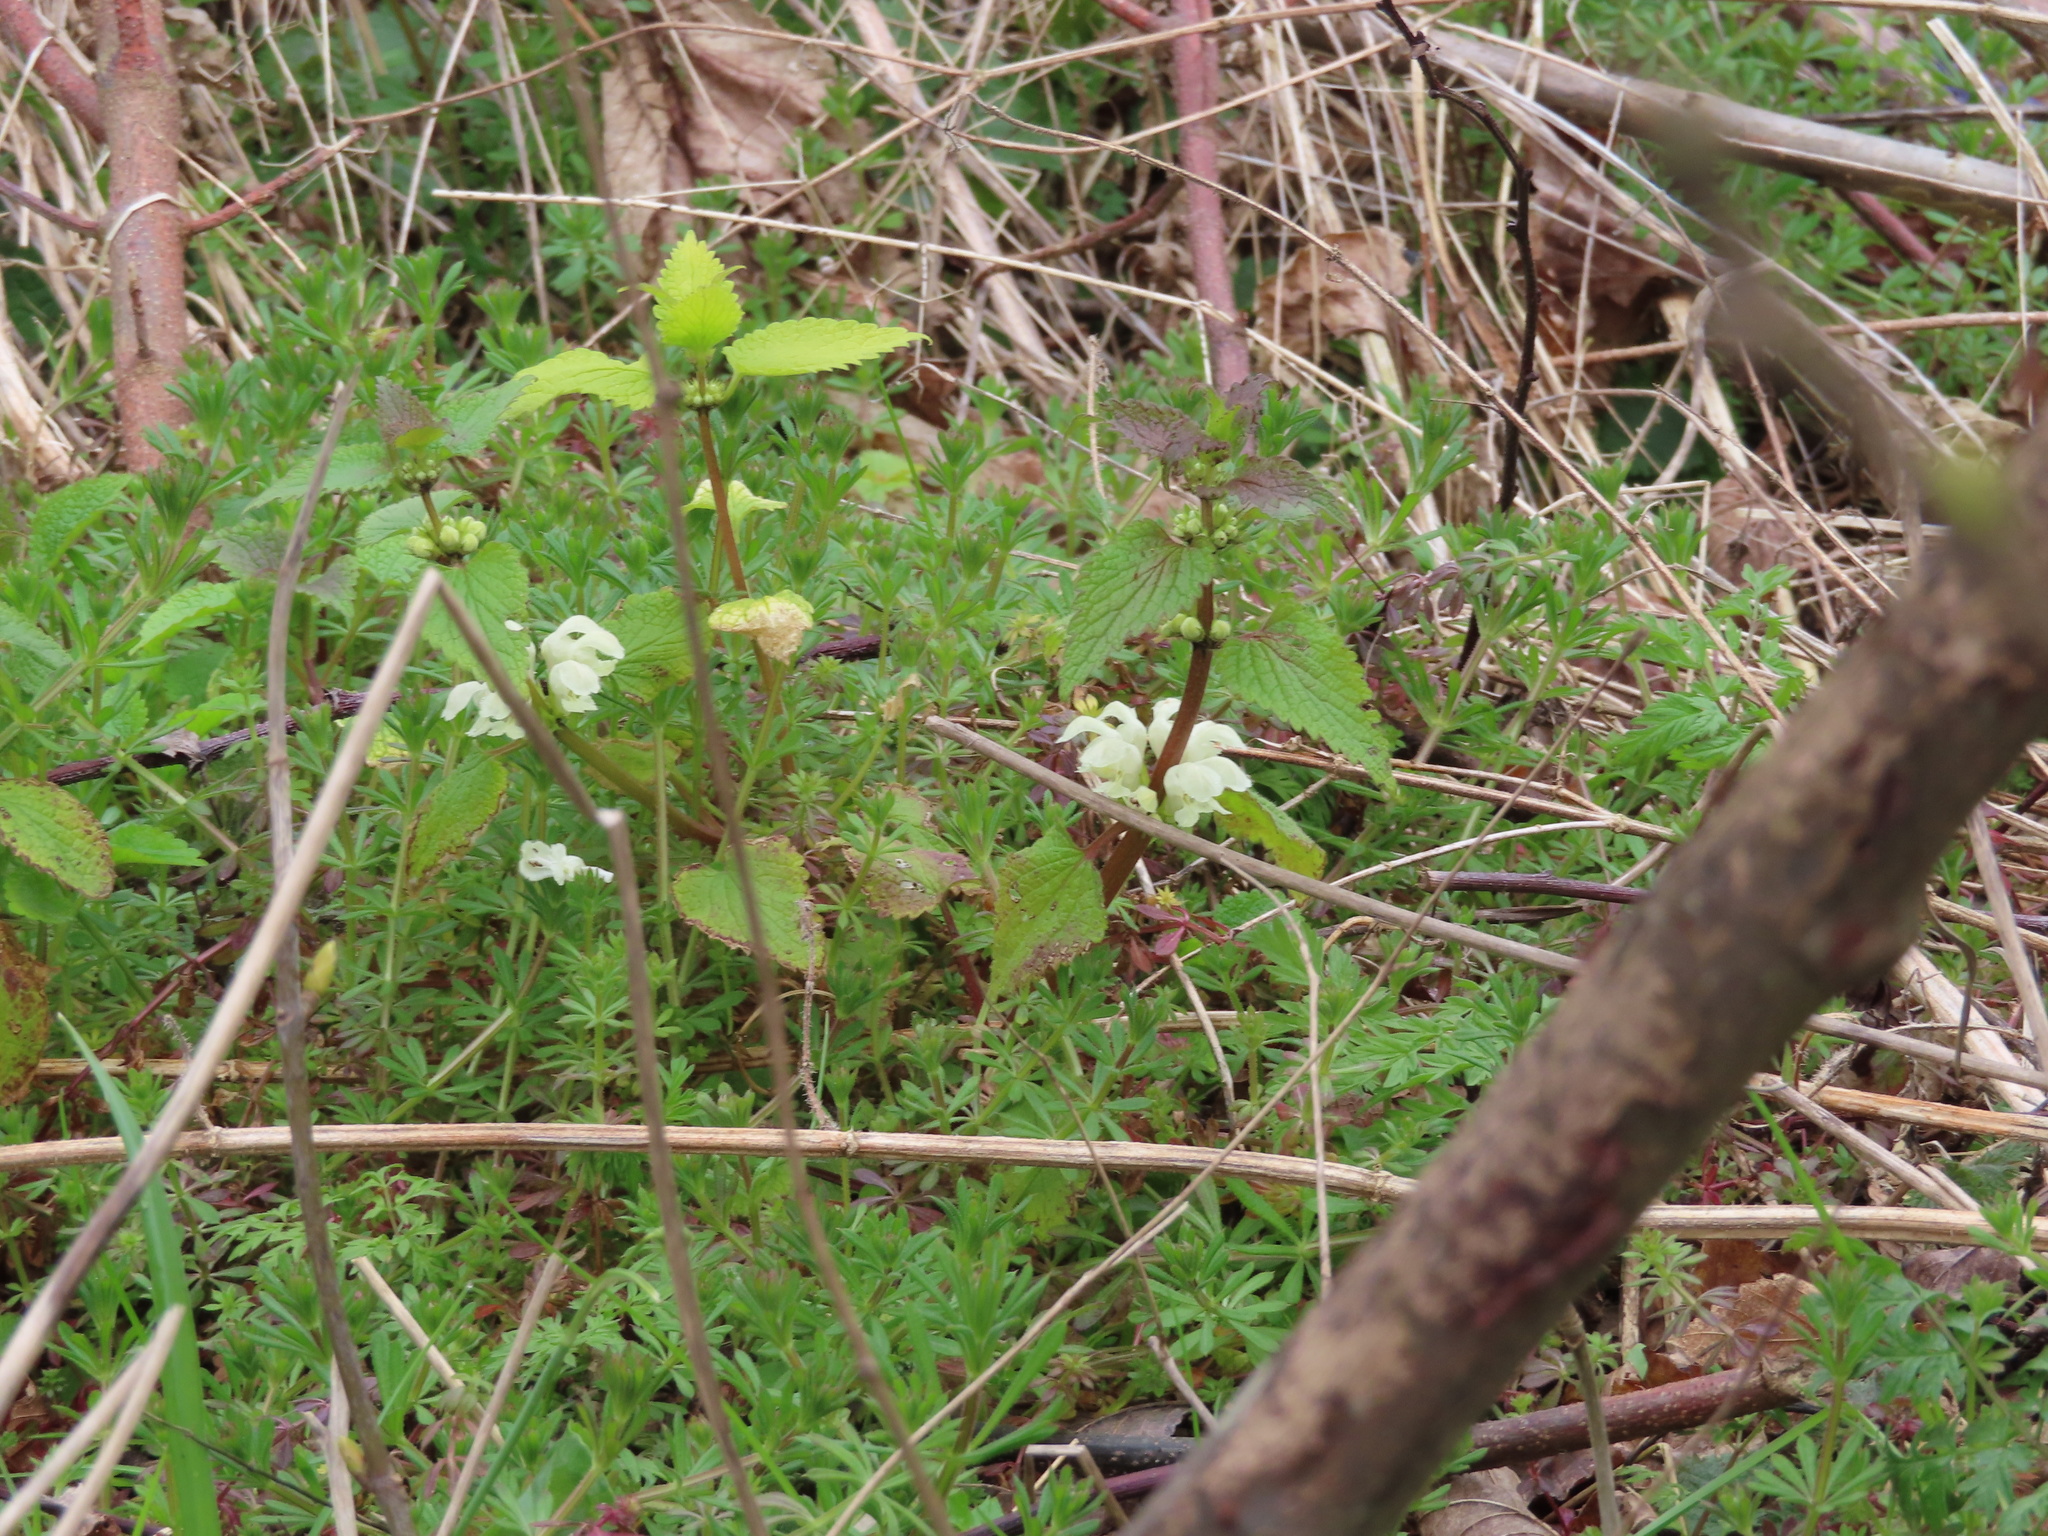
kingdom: Plantae
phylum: Tracheophyta
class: Magnoliopsida
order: Lamiales
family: Lamiaceae
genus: Lamium
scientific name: Lamium album
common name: White dead-nettle
